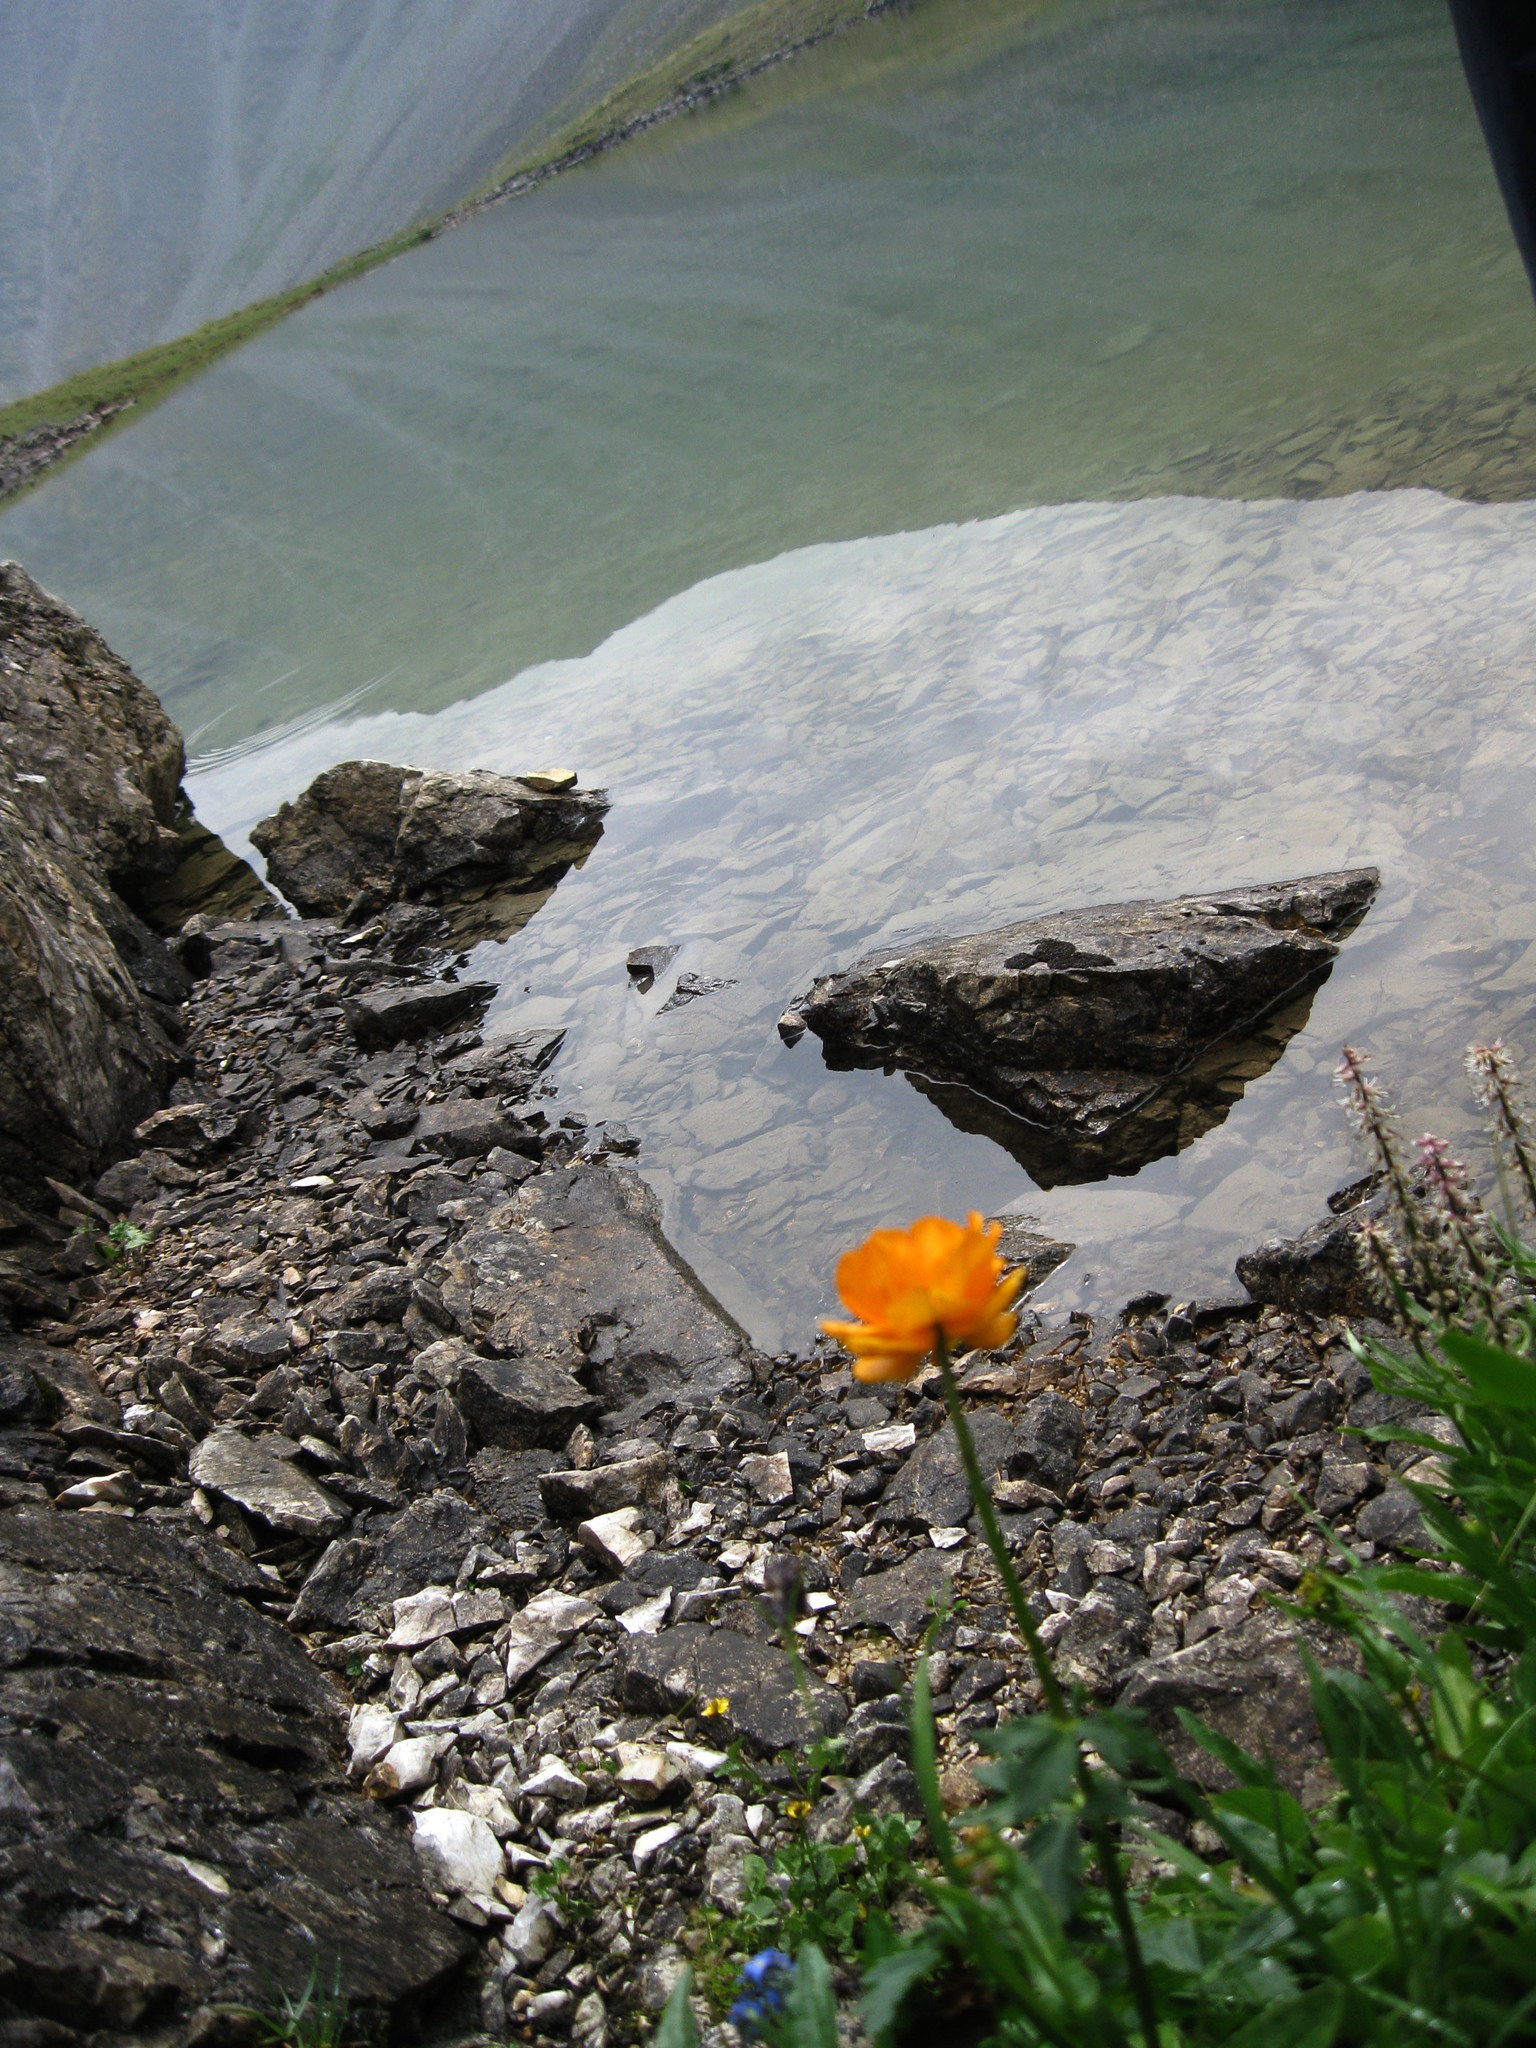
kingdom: Plantae
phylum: Tracheophyta
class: Magnoliopsida
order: Ranunculales
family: Ranunculaceae
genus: Trollius
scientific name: Trollius asiaticus
